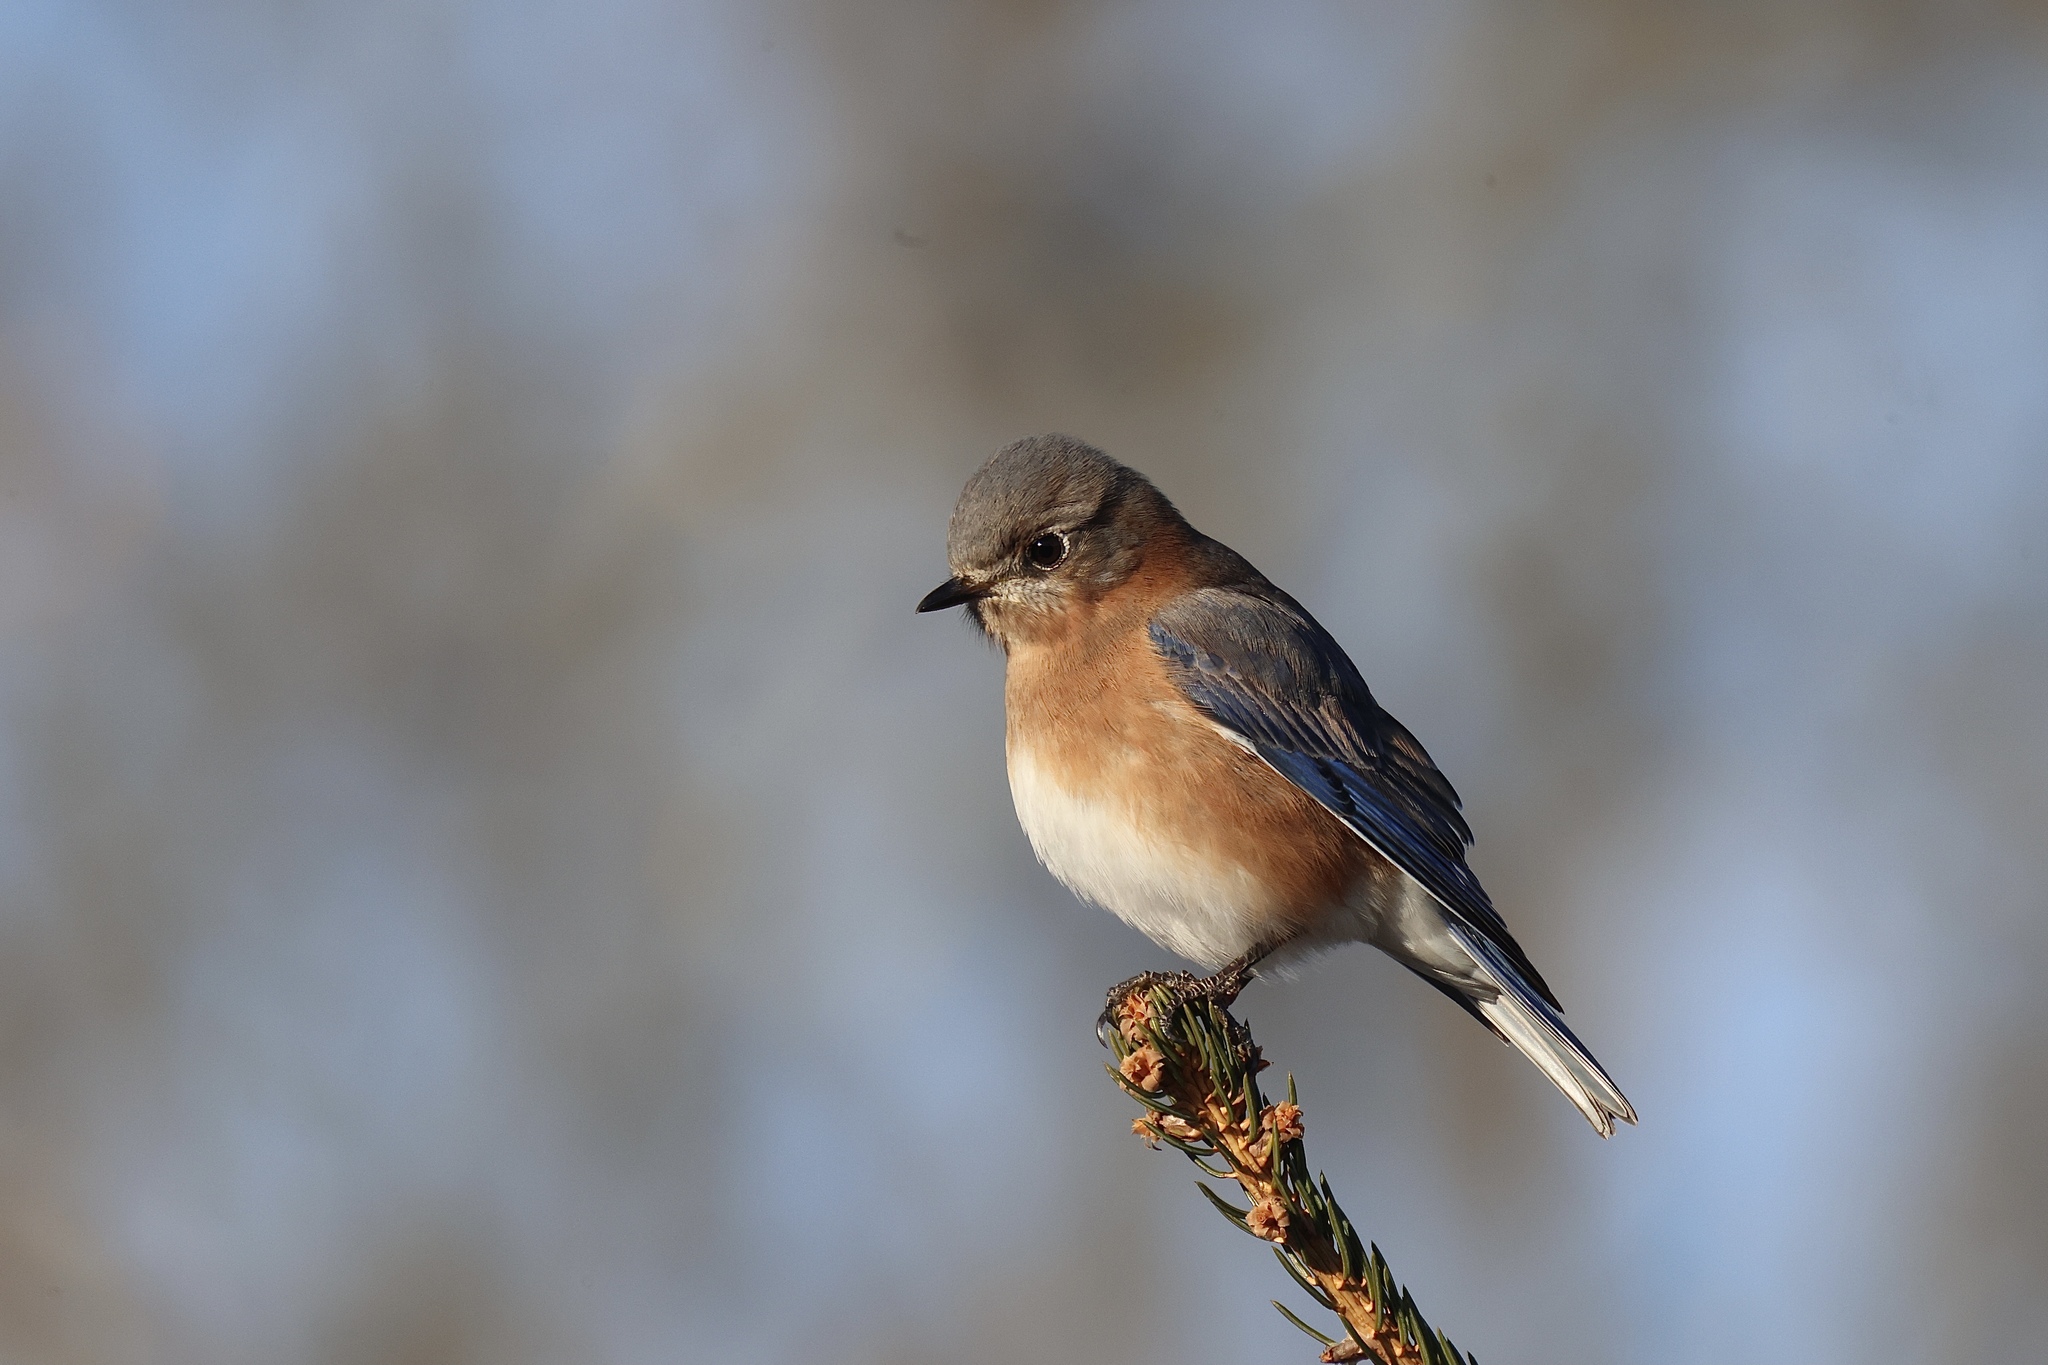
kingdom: Animalia
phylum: Chordata
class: Aves
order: Passeriformes
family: Turdidae
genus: Sialia
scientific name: Sialia sialis
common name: Eastern bluebird
